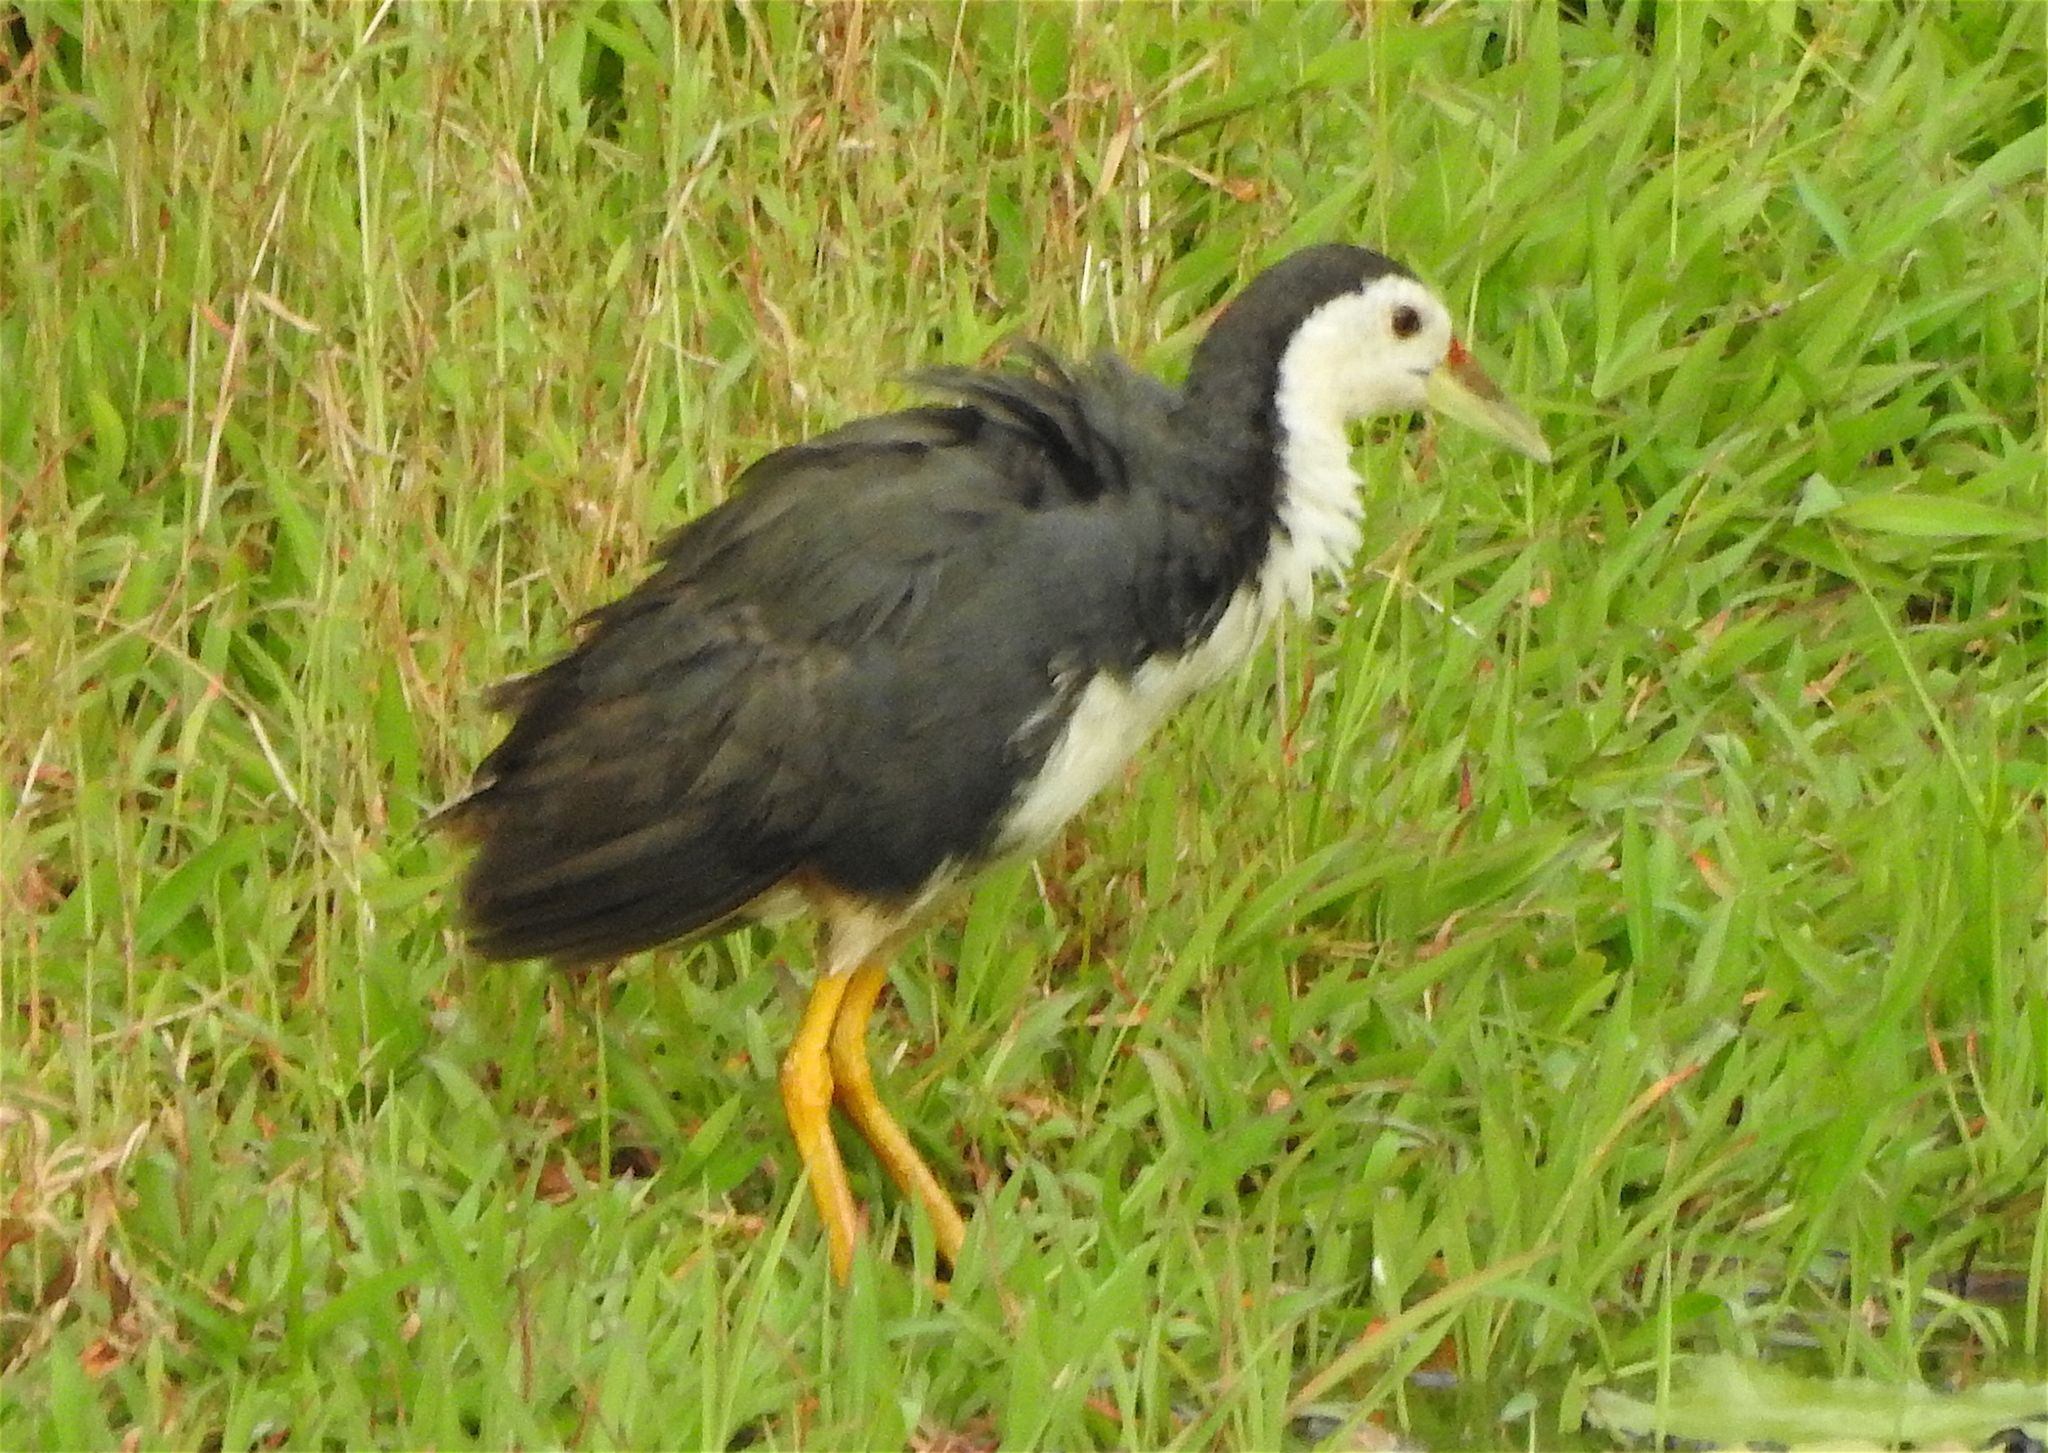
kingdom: Animalia
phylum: Chordata
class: Aves
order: Gruiformes
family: Rallidae
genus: Amaurornis
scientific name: Amaurornis phoenicurus
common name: White-breasted waterhen
